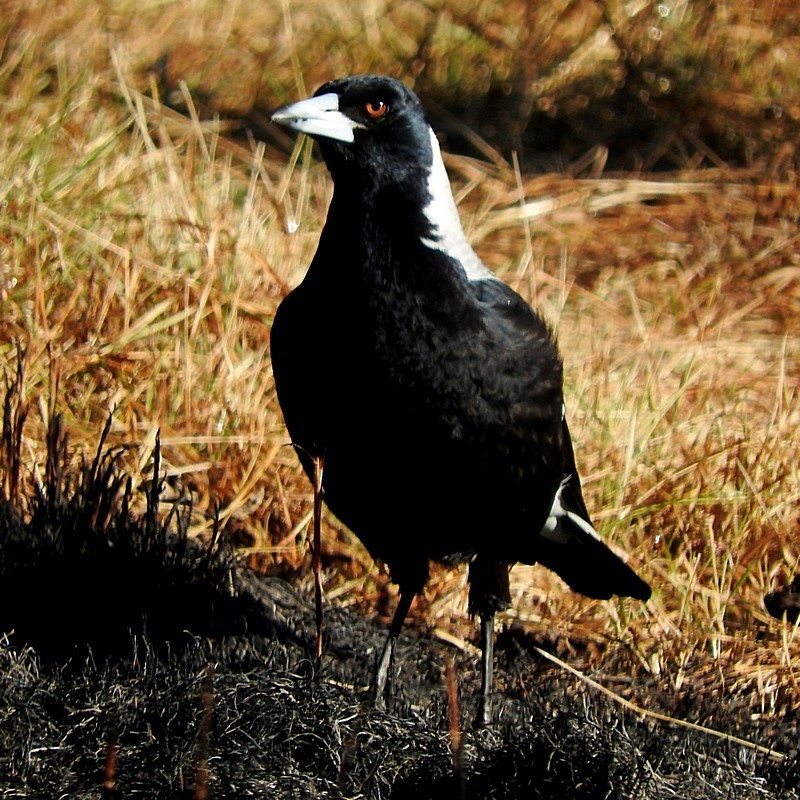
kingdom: Animalia
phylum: Chordata
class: Aves
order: Passeriformes
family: Cracticidae
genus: Gymnorhina
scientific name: Gymnorhina tibicen
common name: Australian magpie
